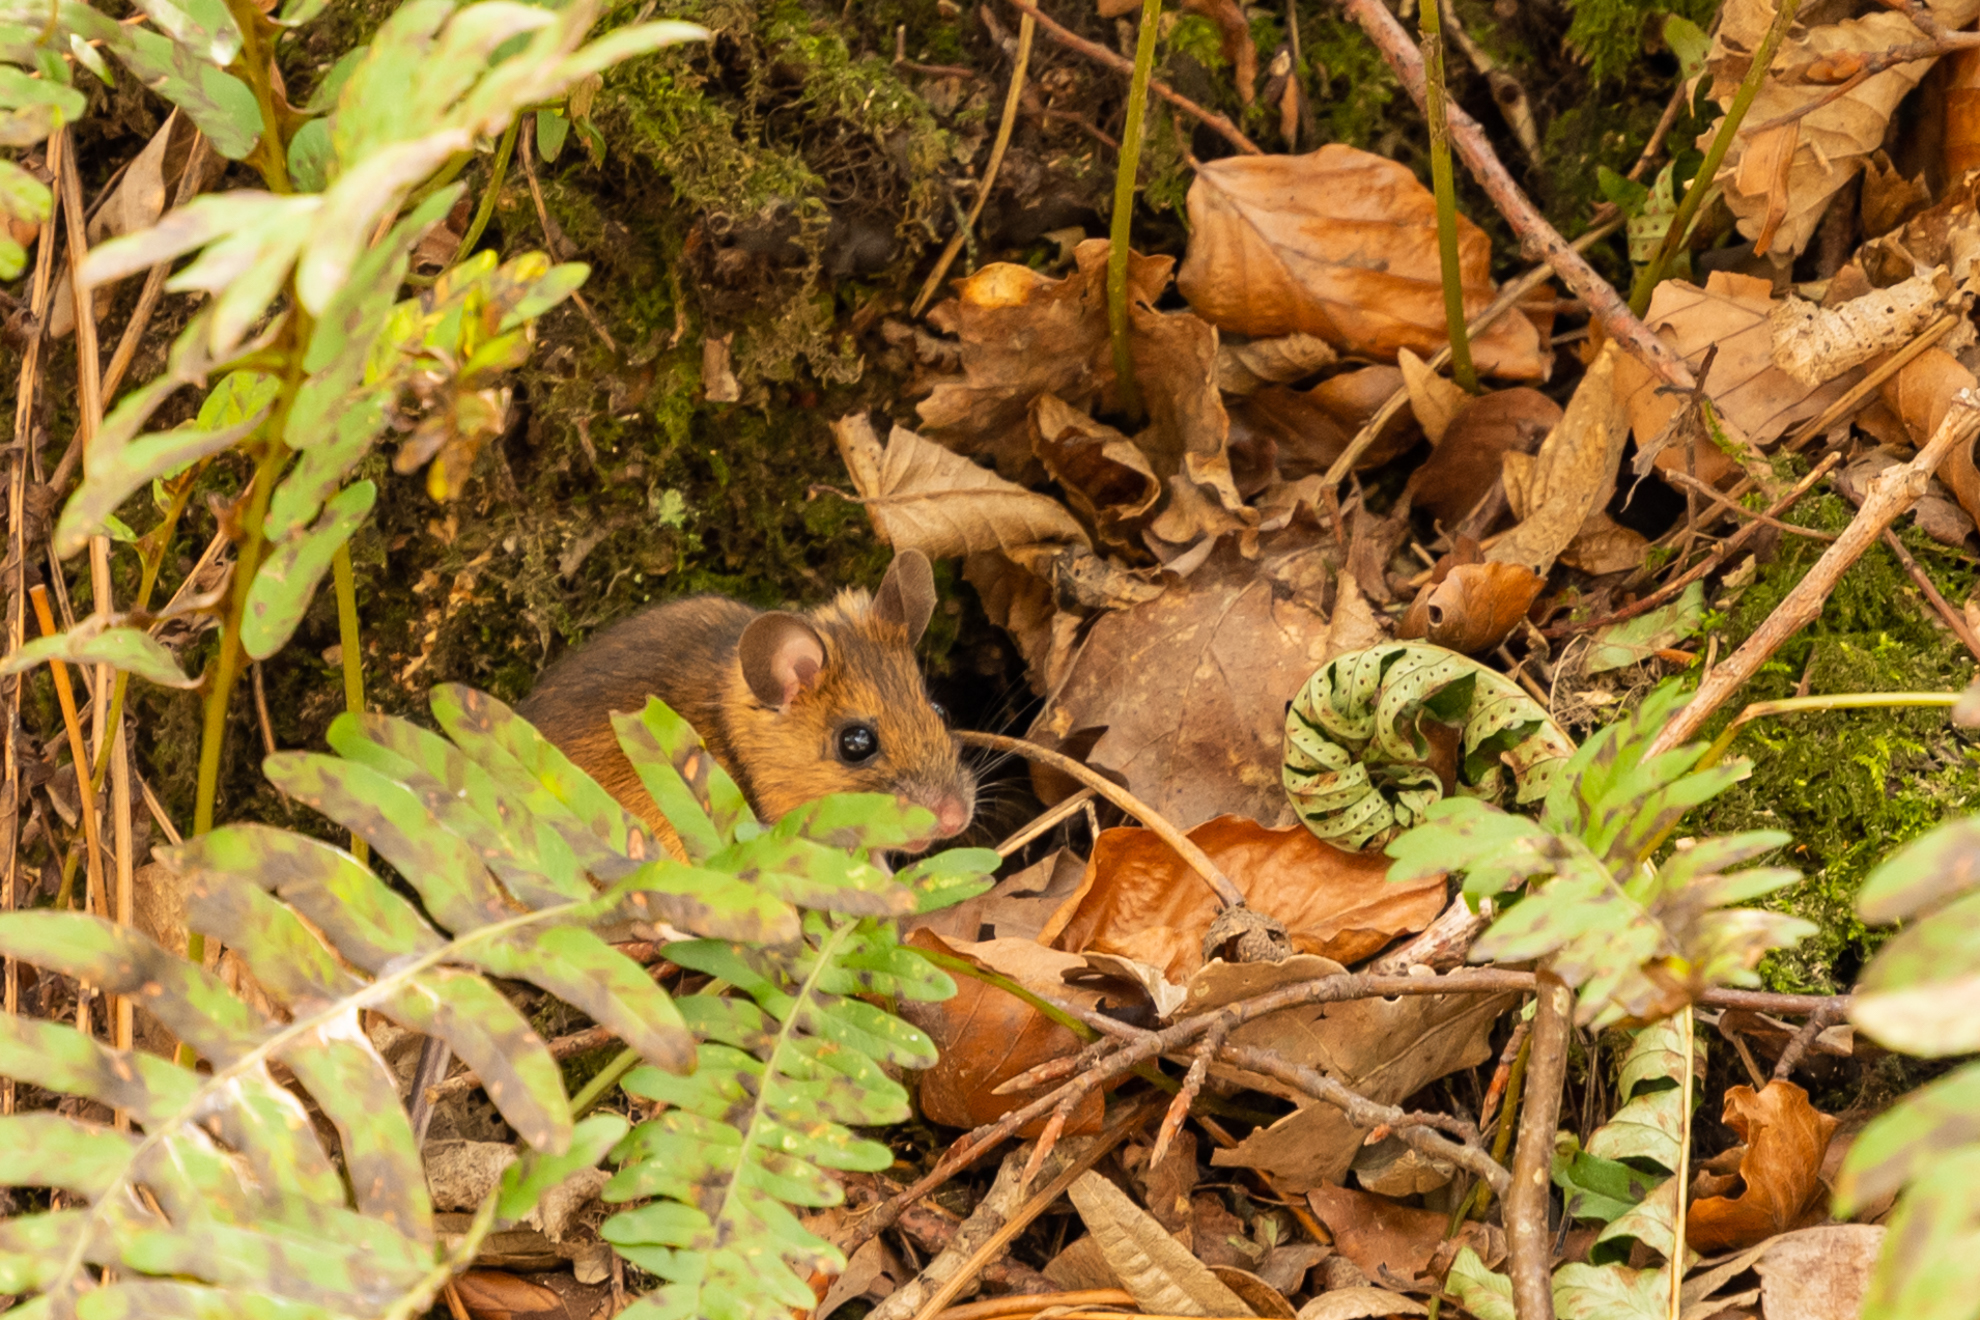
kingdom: Animalia
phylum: Chordata
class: Mammalia
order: Rodentia
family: Muridae
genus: Apodemus
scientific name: Apodemus flavicollis
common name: Yellow-necked field mouse
